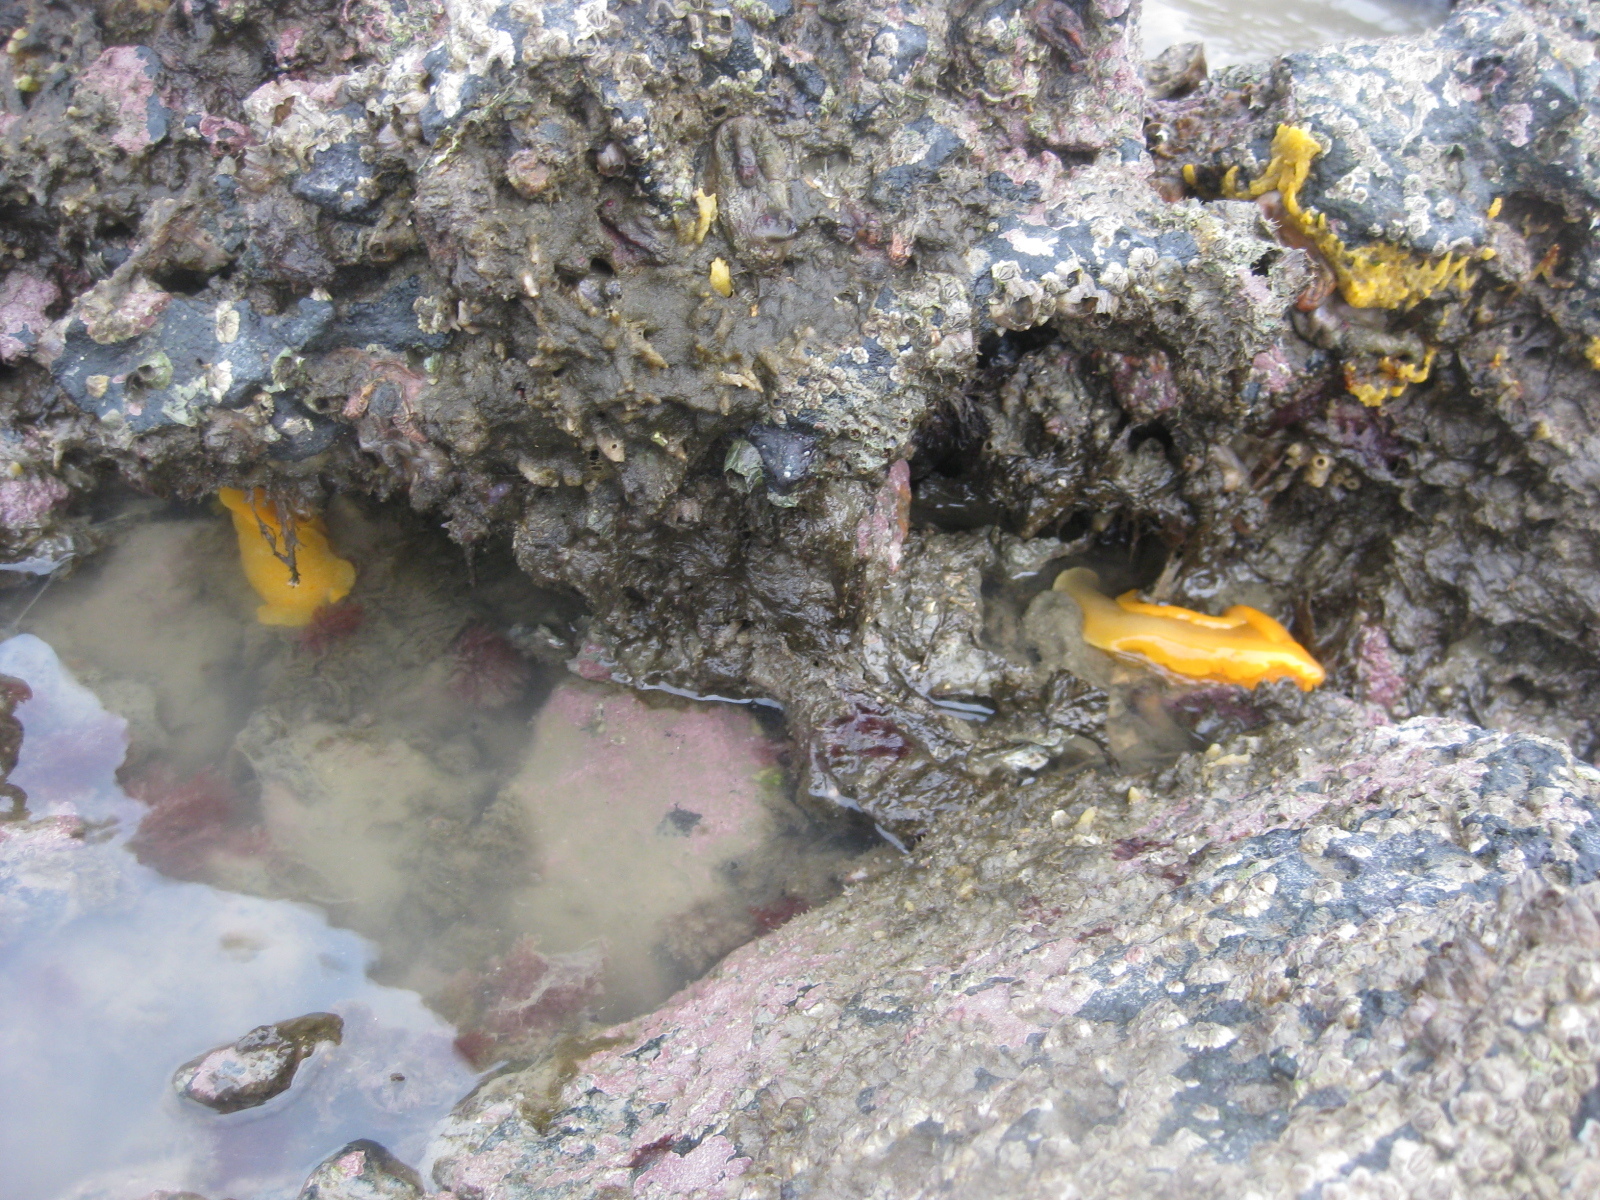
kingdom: Animalia
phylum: Mollusca
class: Gastropoda
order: Nudibranchia
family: Dendrodorididae
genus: Dendrodoris
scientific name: Dendrodoris citrina
